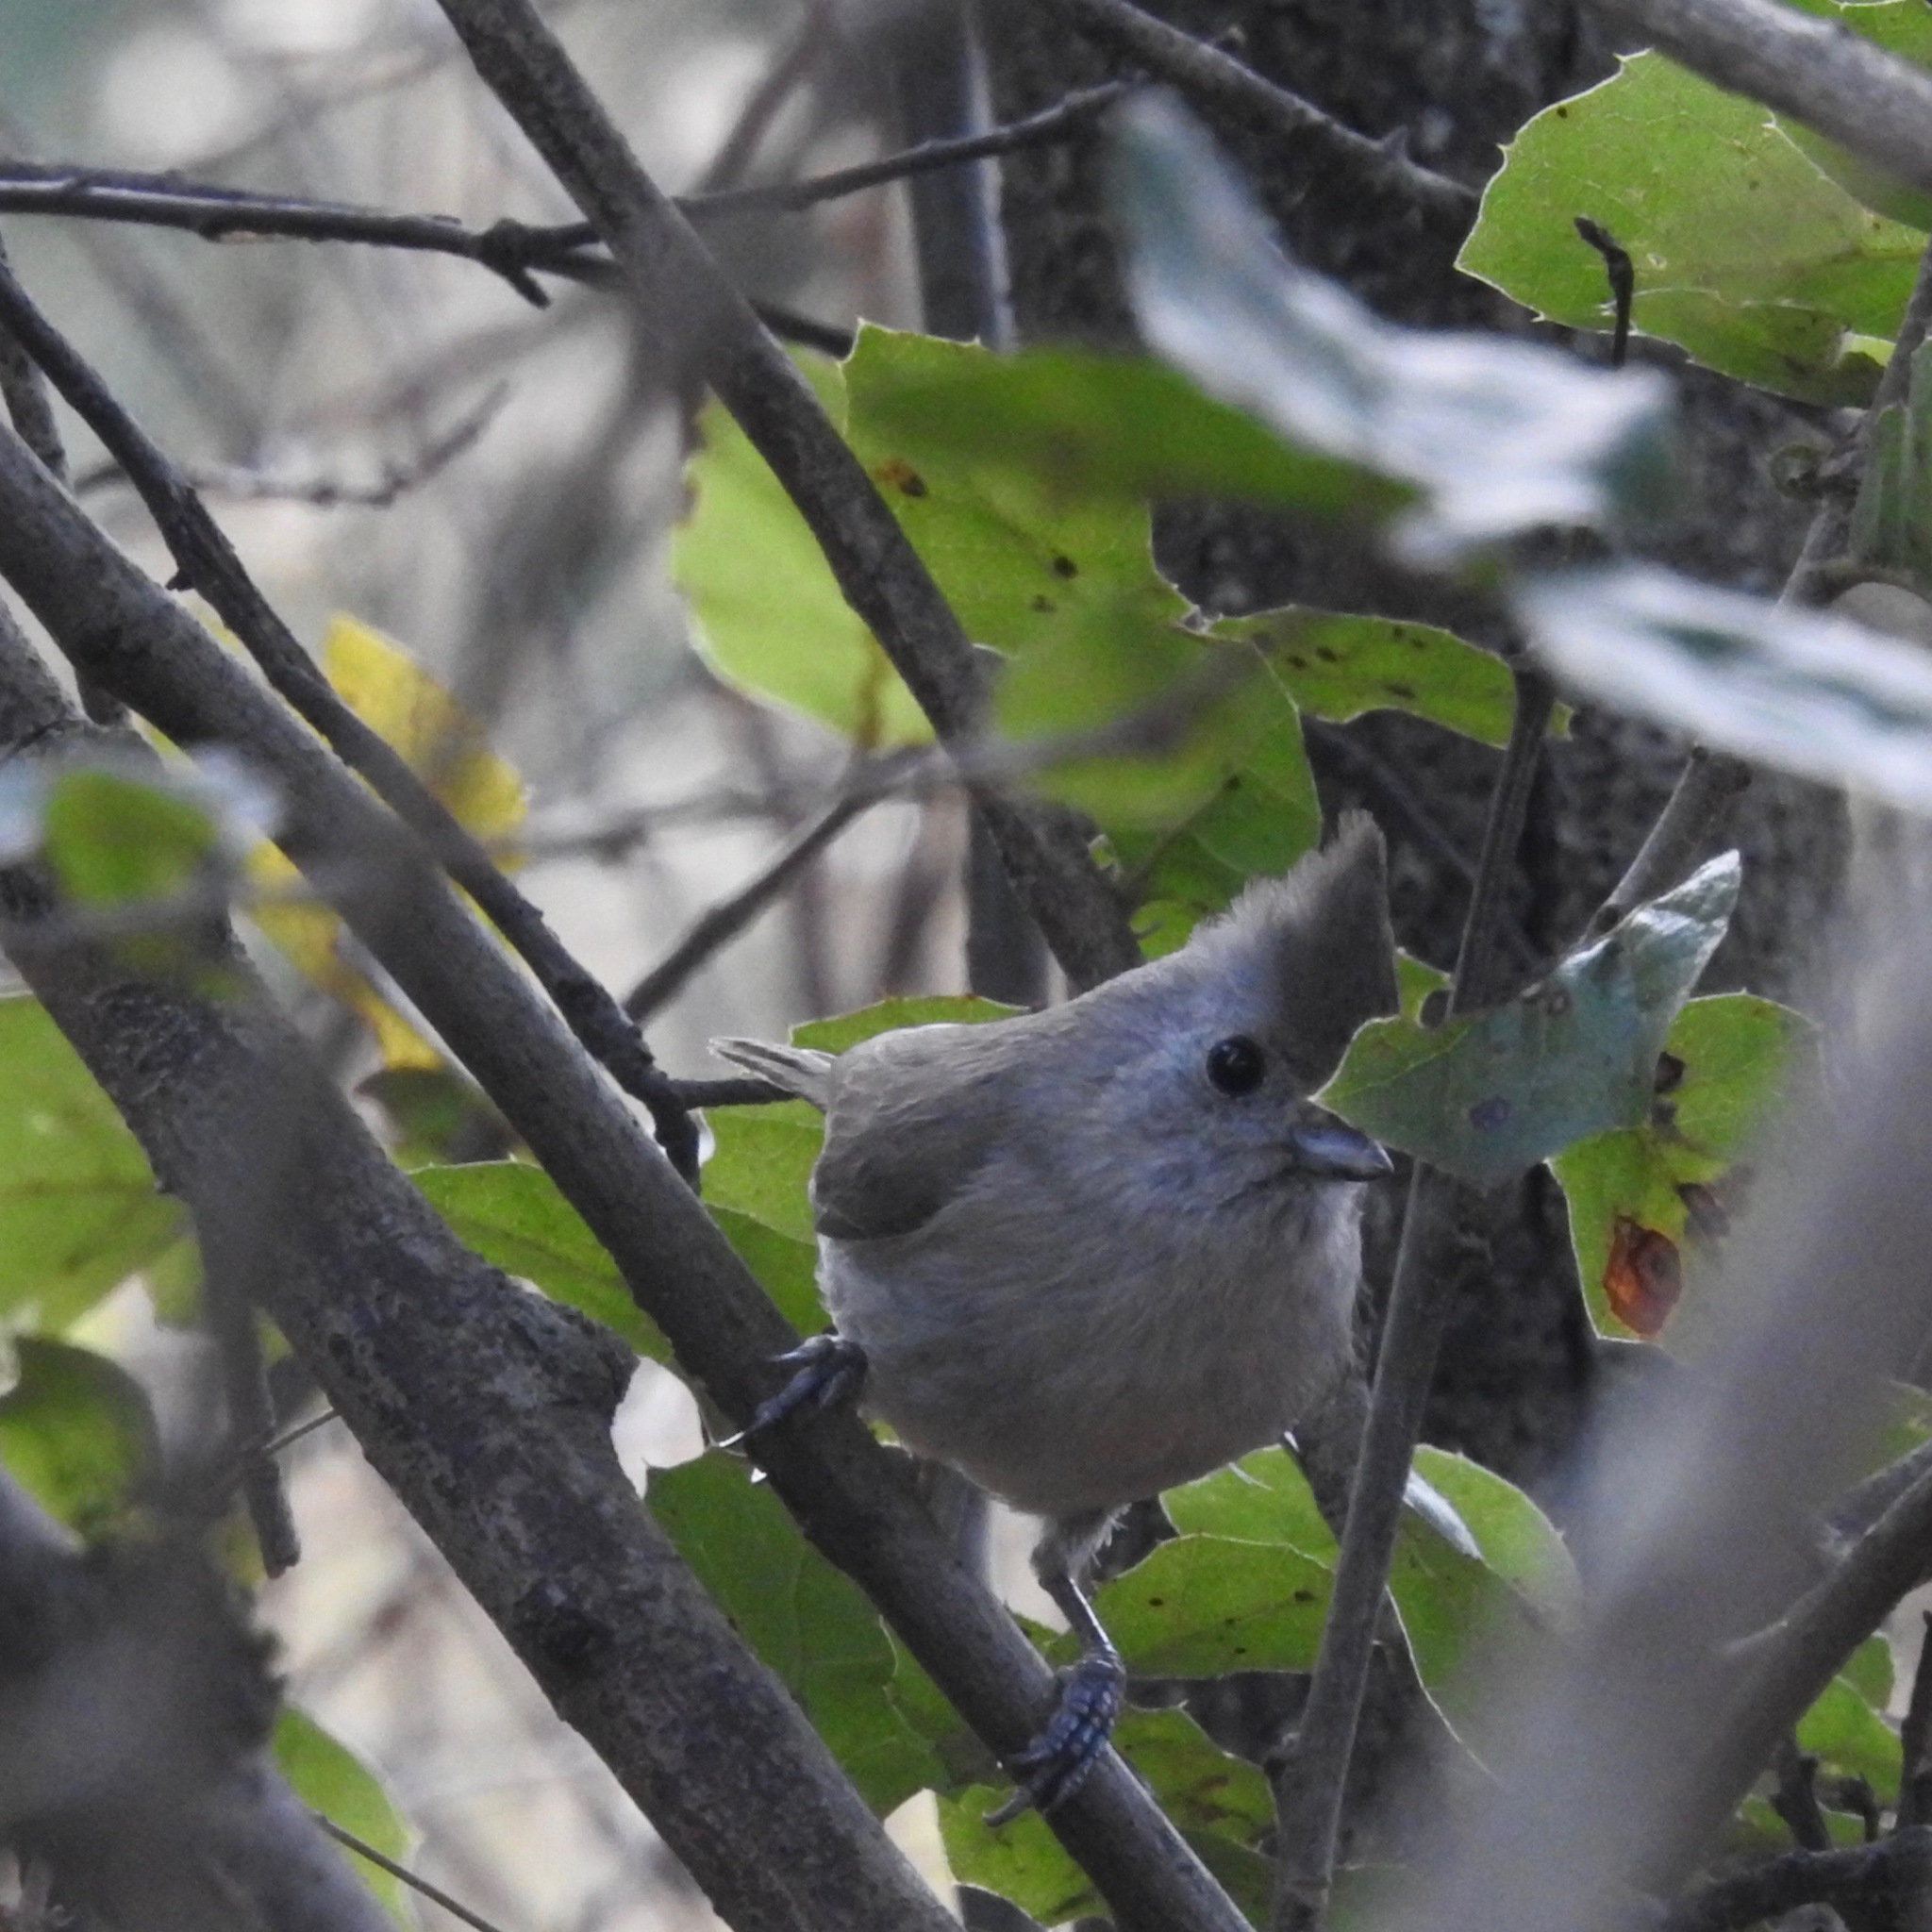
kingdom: Animalia
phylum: Chordata
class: Aves
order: Passeriformes
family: Paridae
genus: Baeolophus
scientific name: Baeolophus inornatus
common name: Oak titmouse
